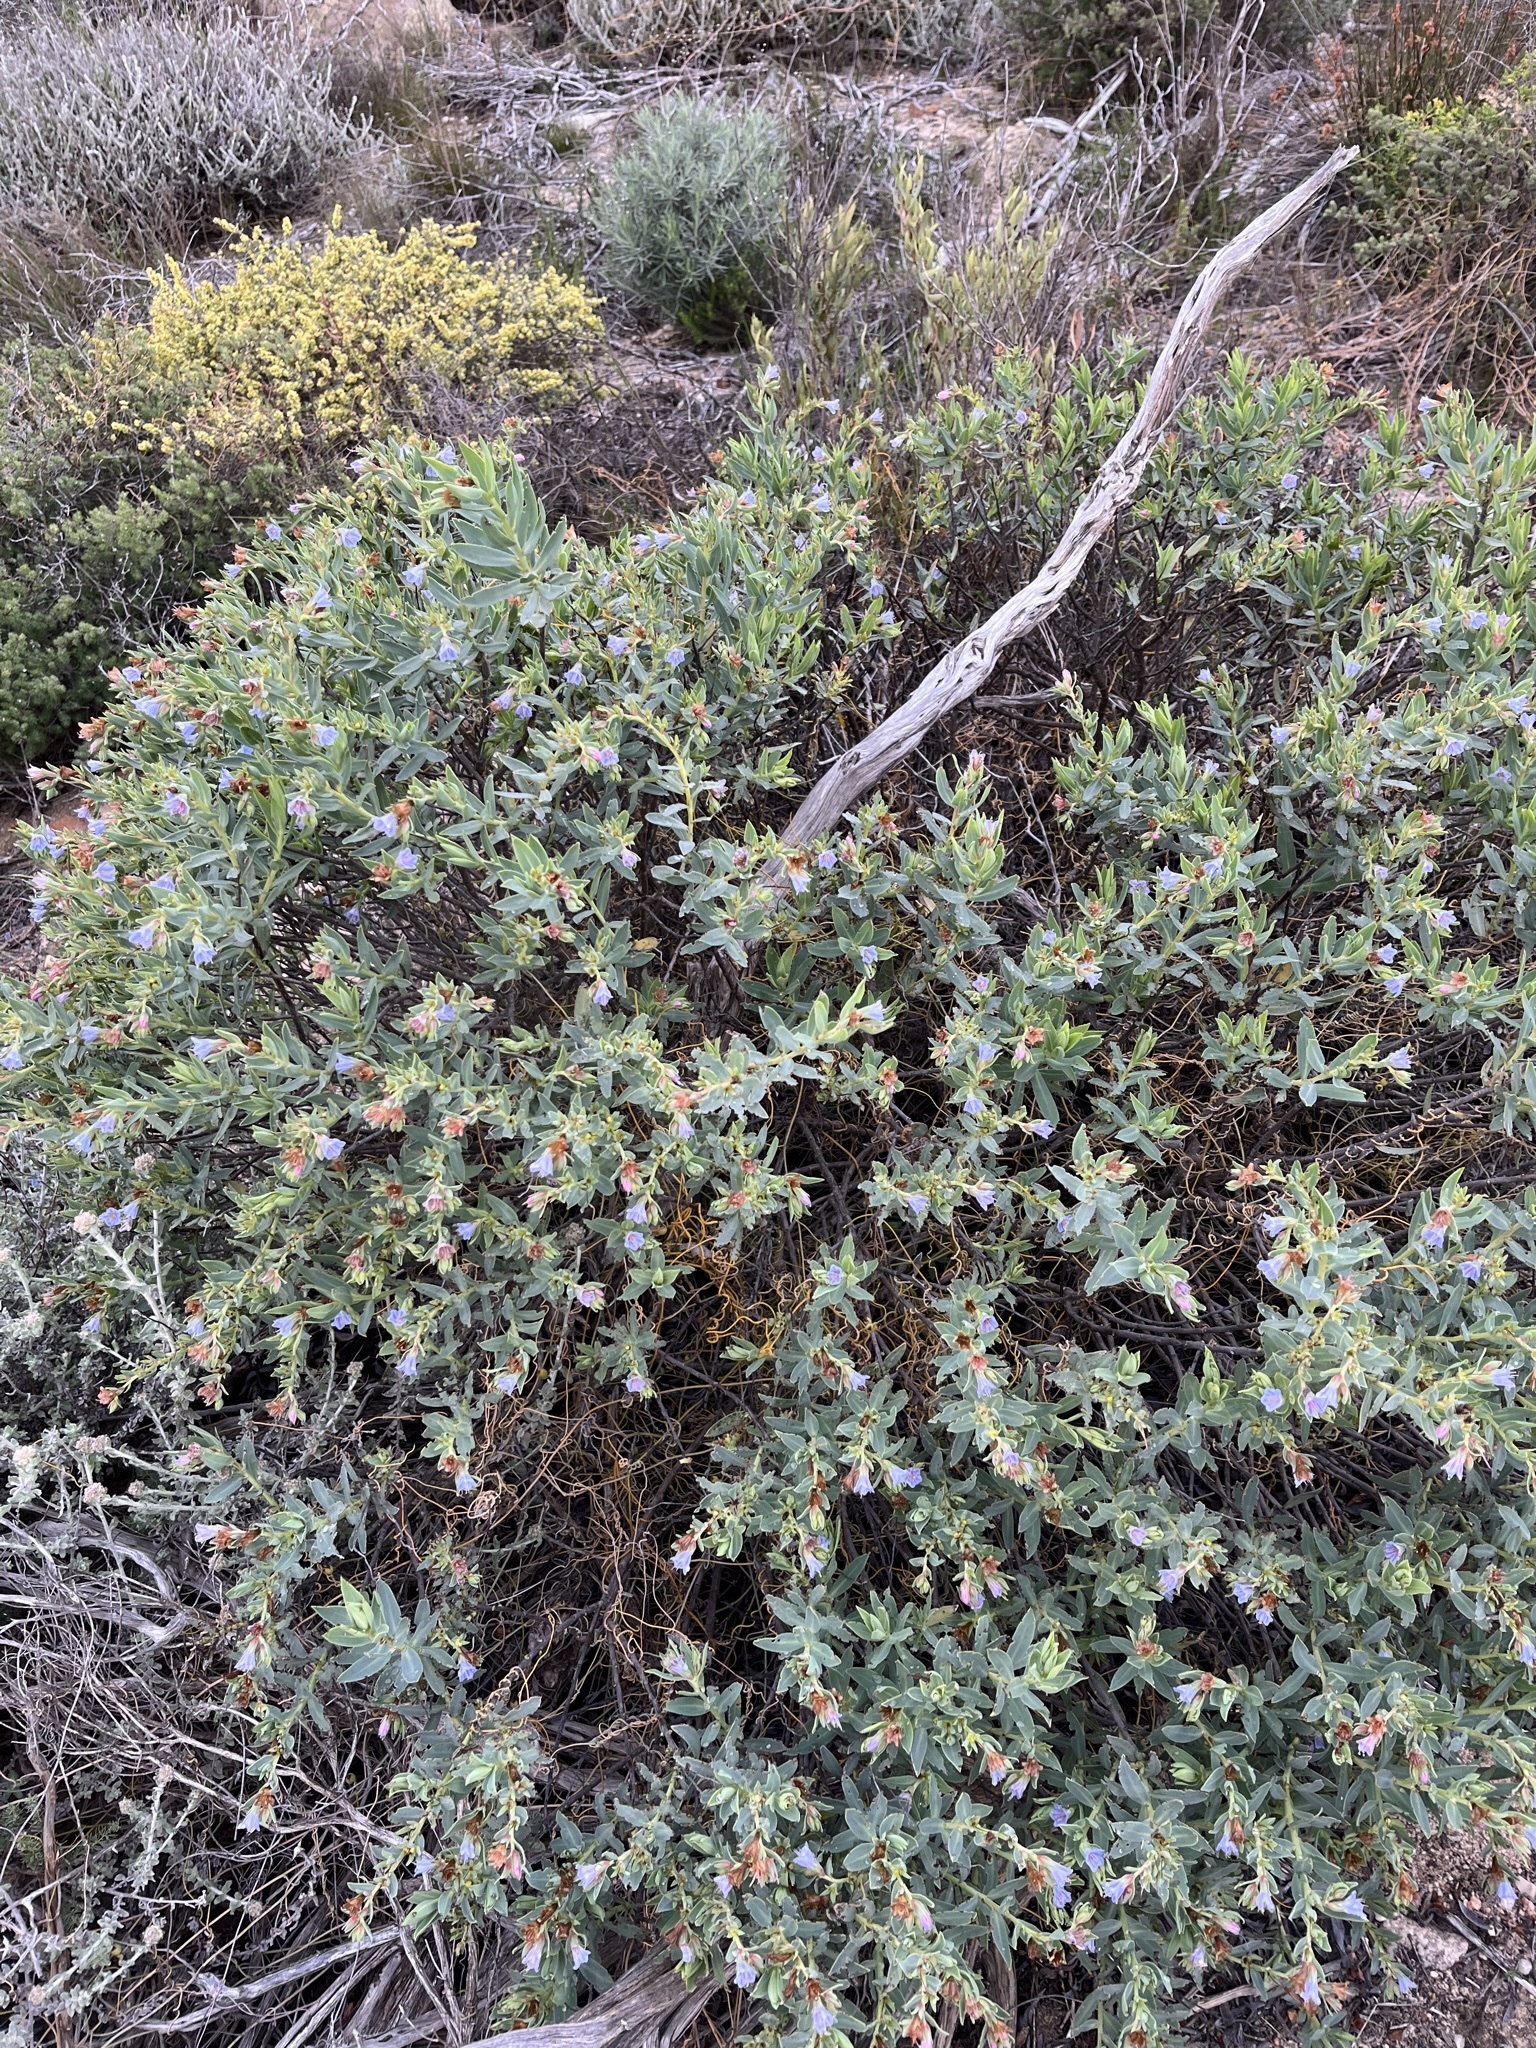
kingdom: Plantae
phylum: Tracheophyta
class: Magnoliopsida
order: Boraginales
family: Boraginaceae
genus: Lobostemon
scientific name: Lobostemon glaucophyllus
